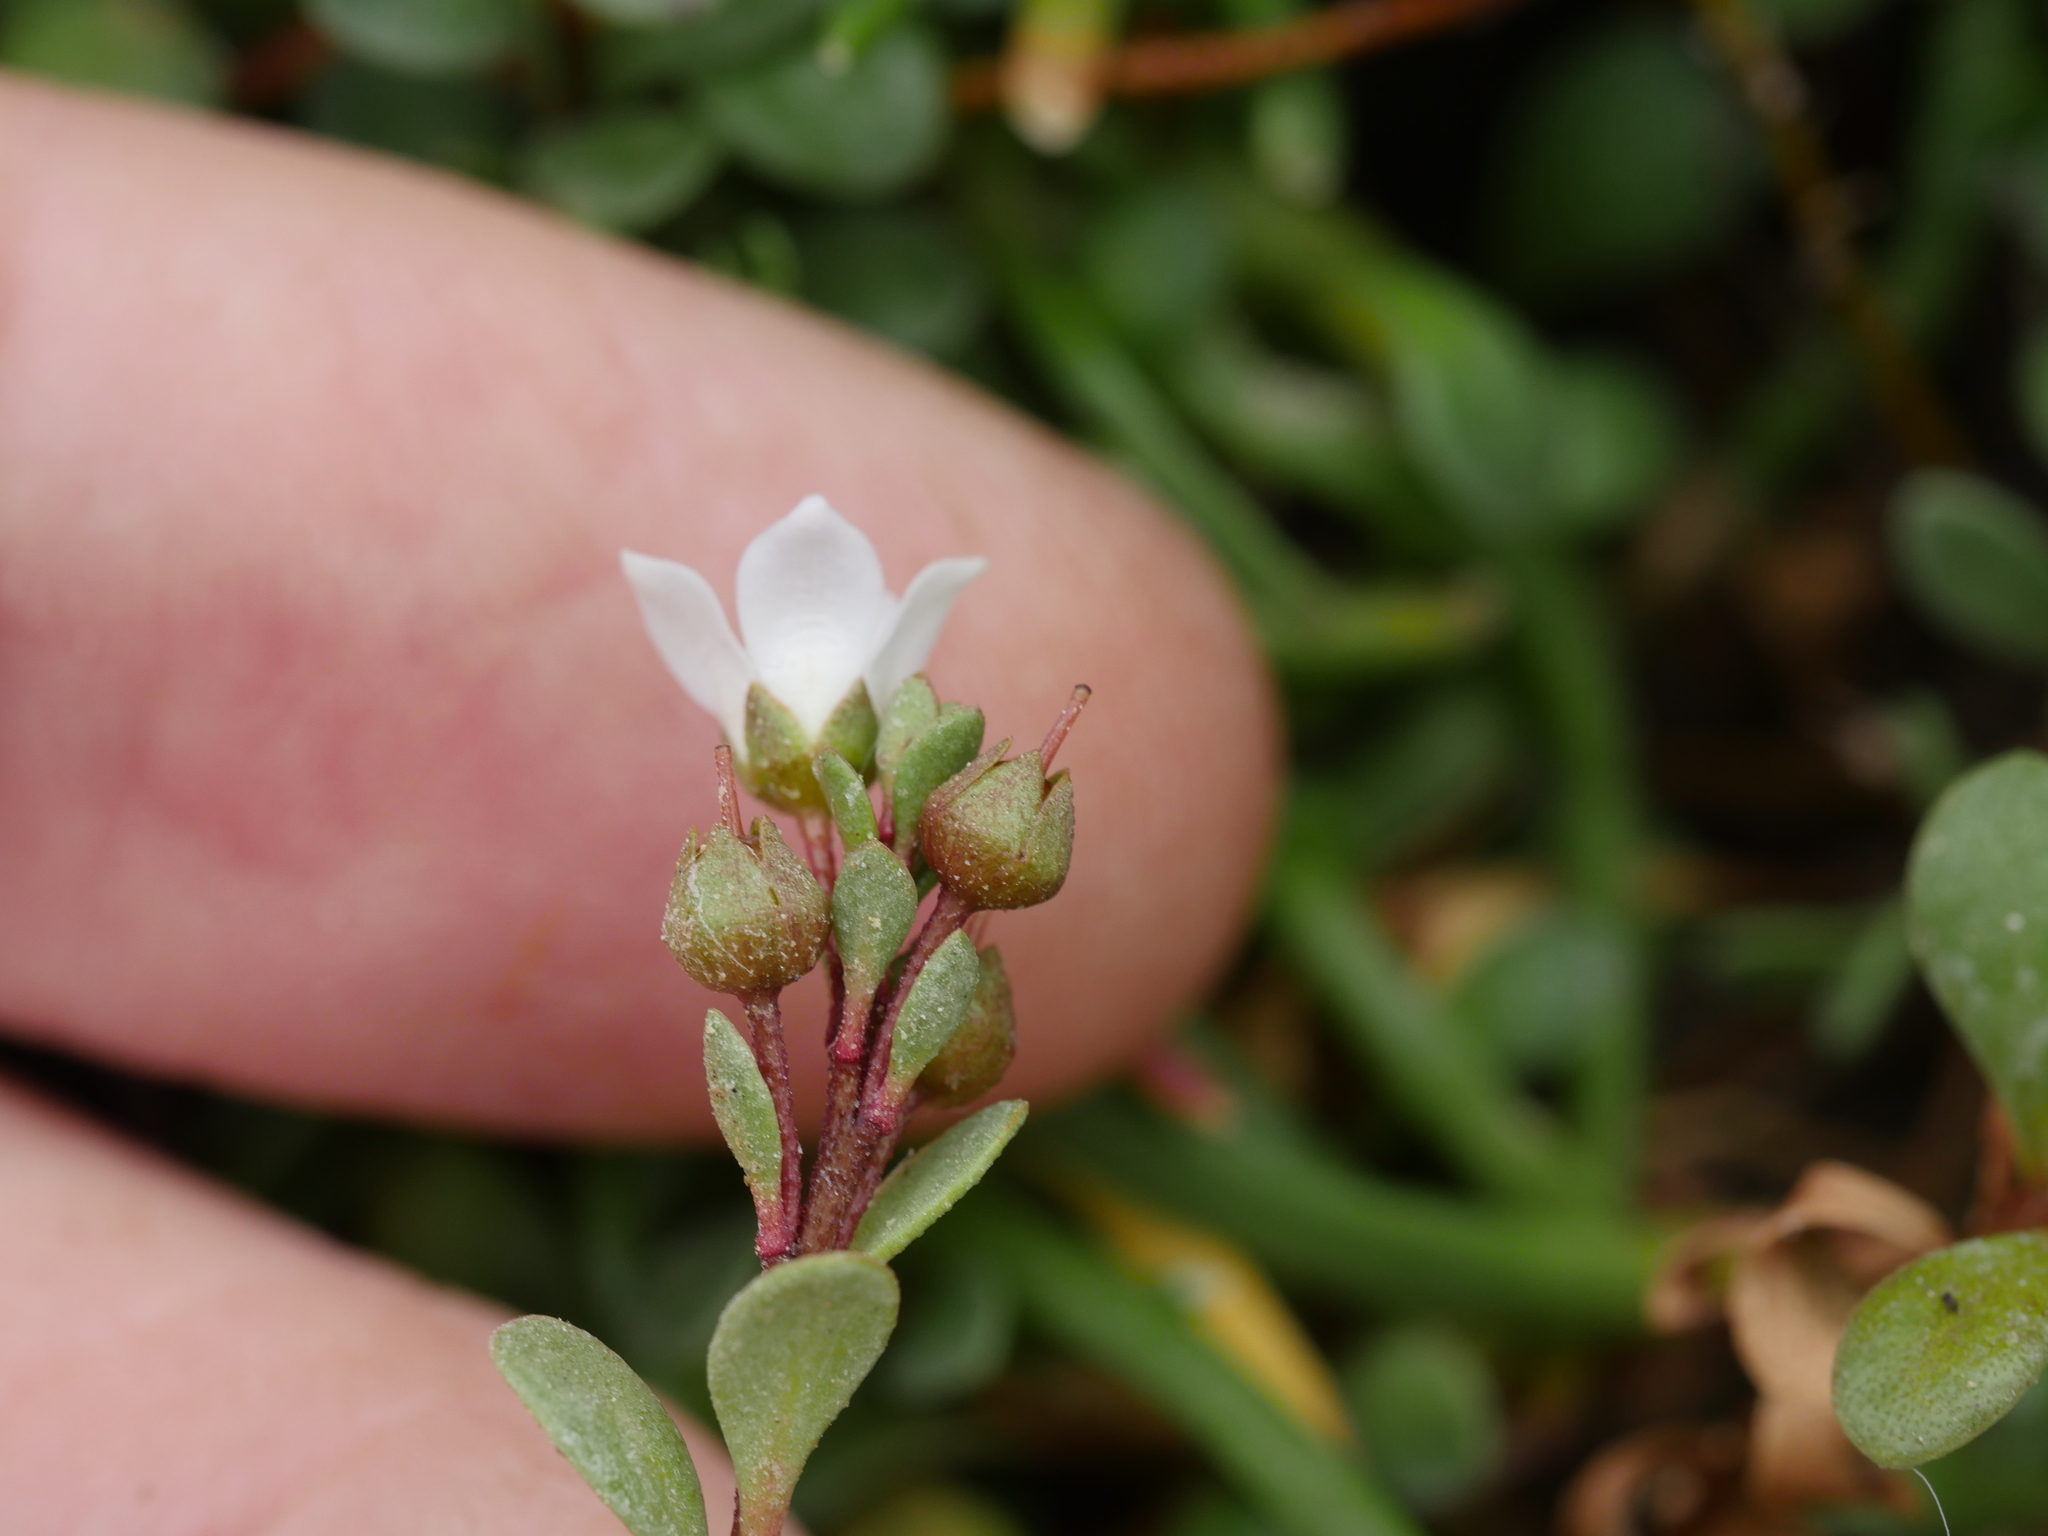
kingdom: Plantae
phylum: Tracheophyta
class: Magnoliopsida
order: Ericales
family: Primulaceae
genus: Samolus
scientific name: Samolus repens
